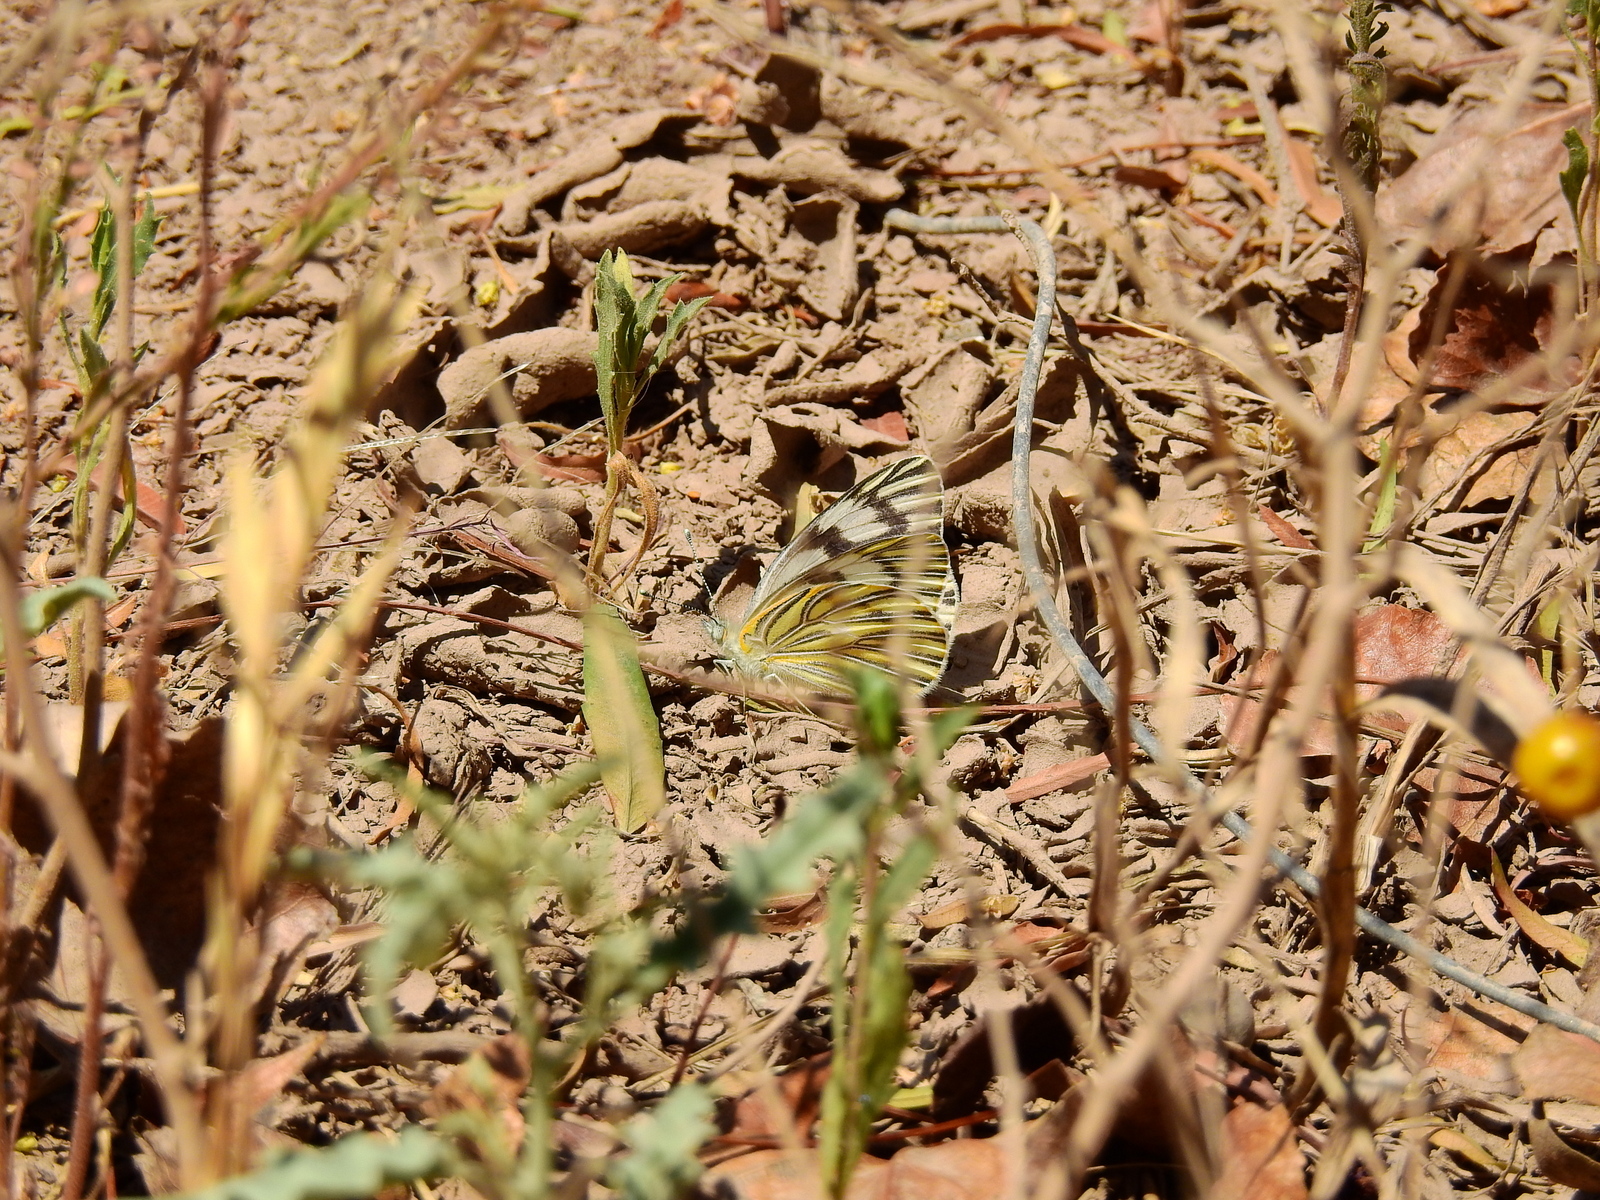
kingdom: Animalia
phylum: Arthropoda
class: Insecta
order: Lepidoptera
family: Pieridae
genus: Tatochila
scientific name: Tatochila mercedis
